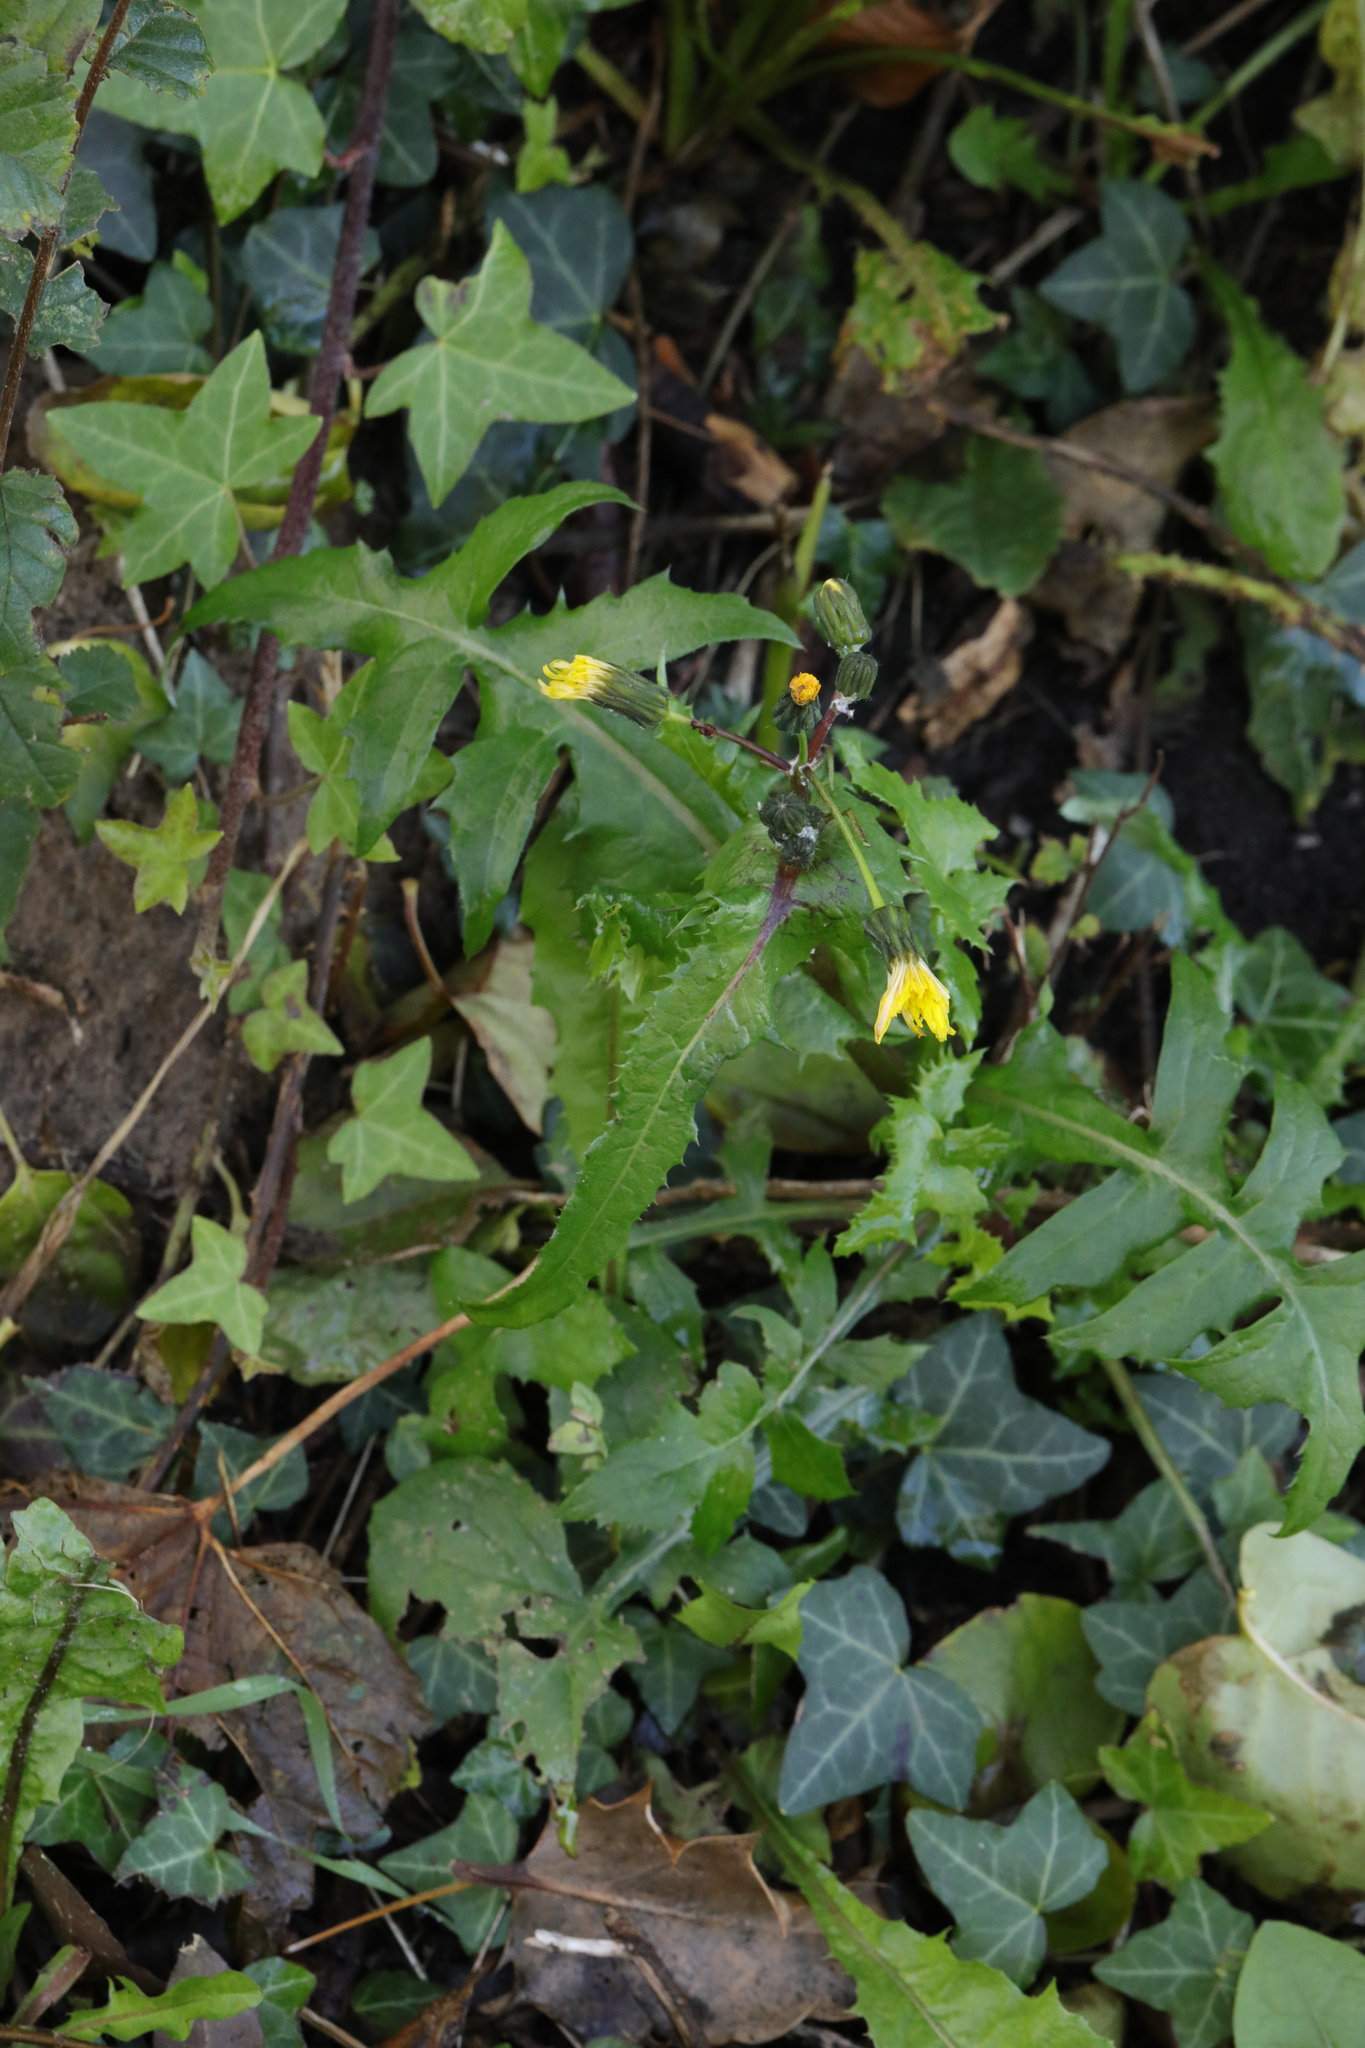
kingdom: Plantae
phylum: Tracheophyta
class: Magnoliopsida
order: Asterales
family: Asteraceae
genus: Sonchus
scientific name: Sonchus asper
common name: Prickly sow-thistle
